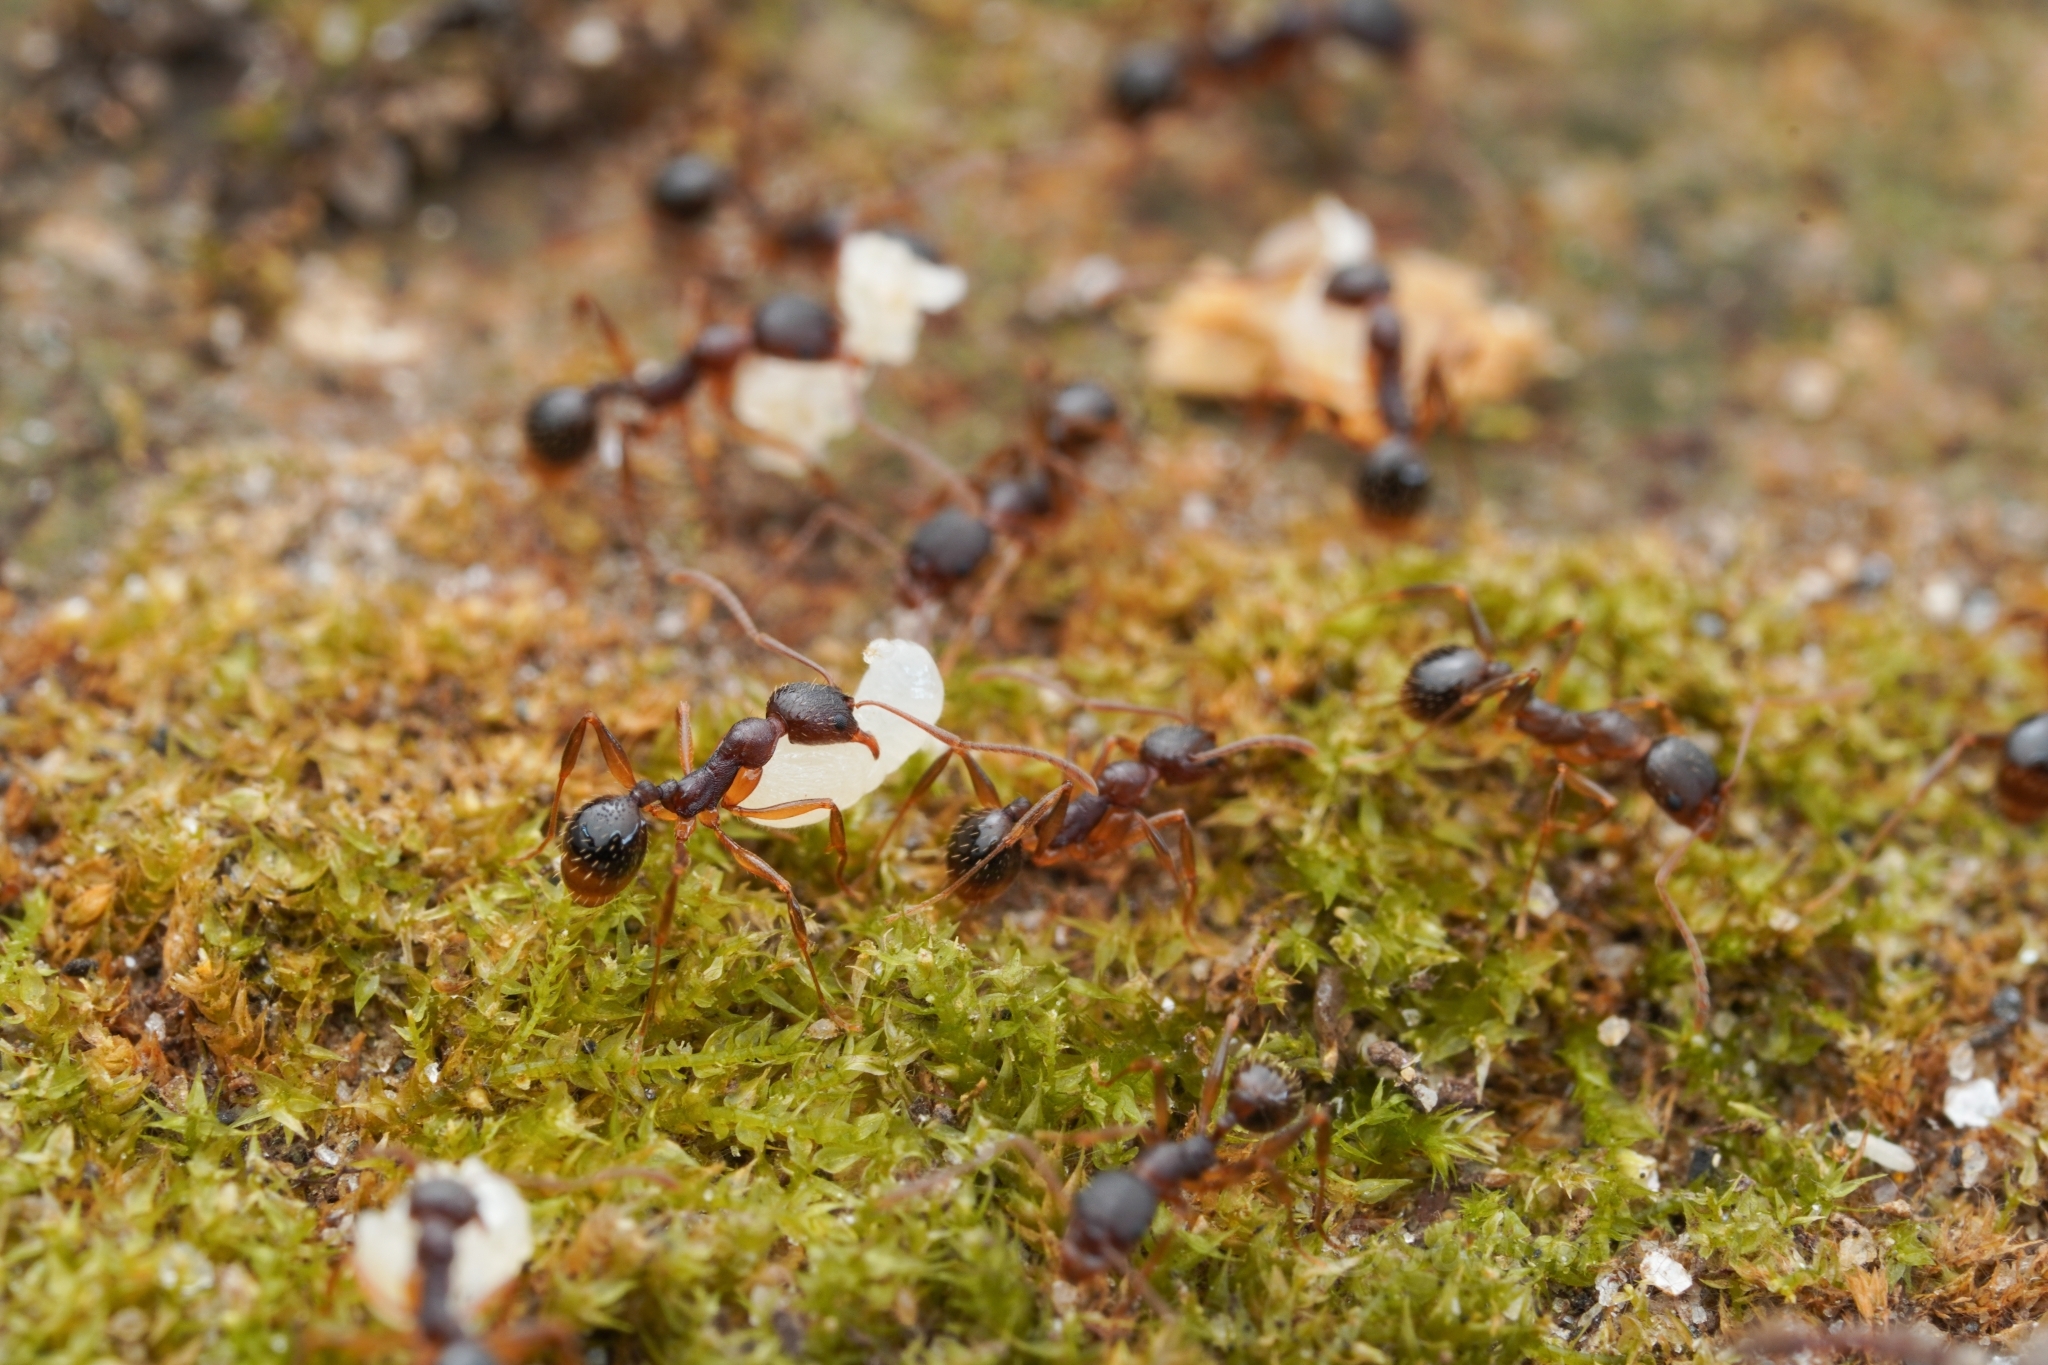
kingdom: Animalia
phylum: Arthropoda
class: Insecta
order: Hymenoptera
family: Formicidae
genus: Aphaenogaster
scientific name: Aphaenogaster rudis
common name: Winnow ant
